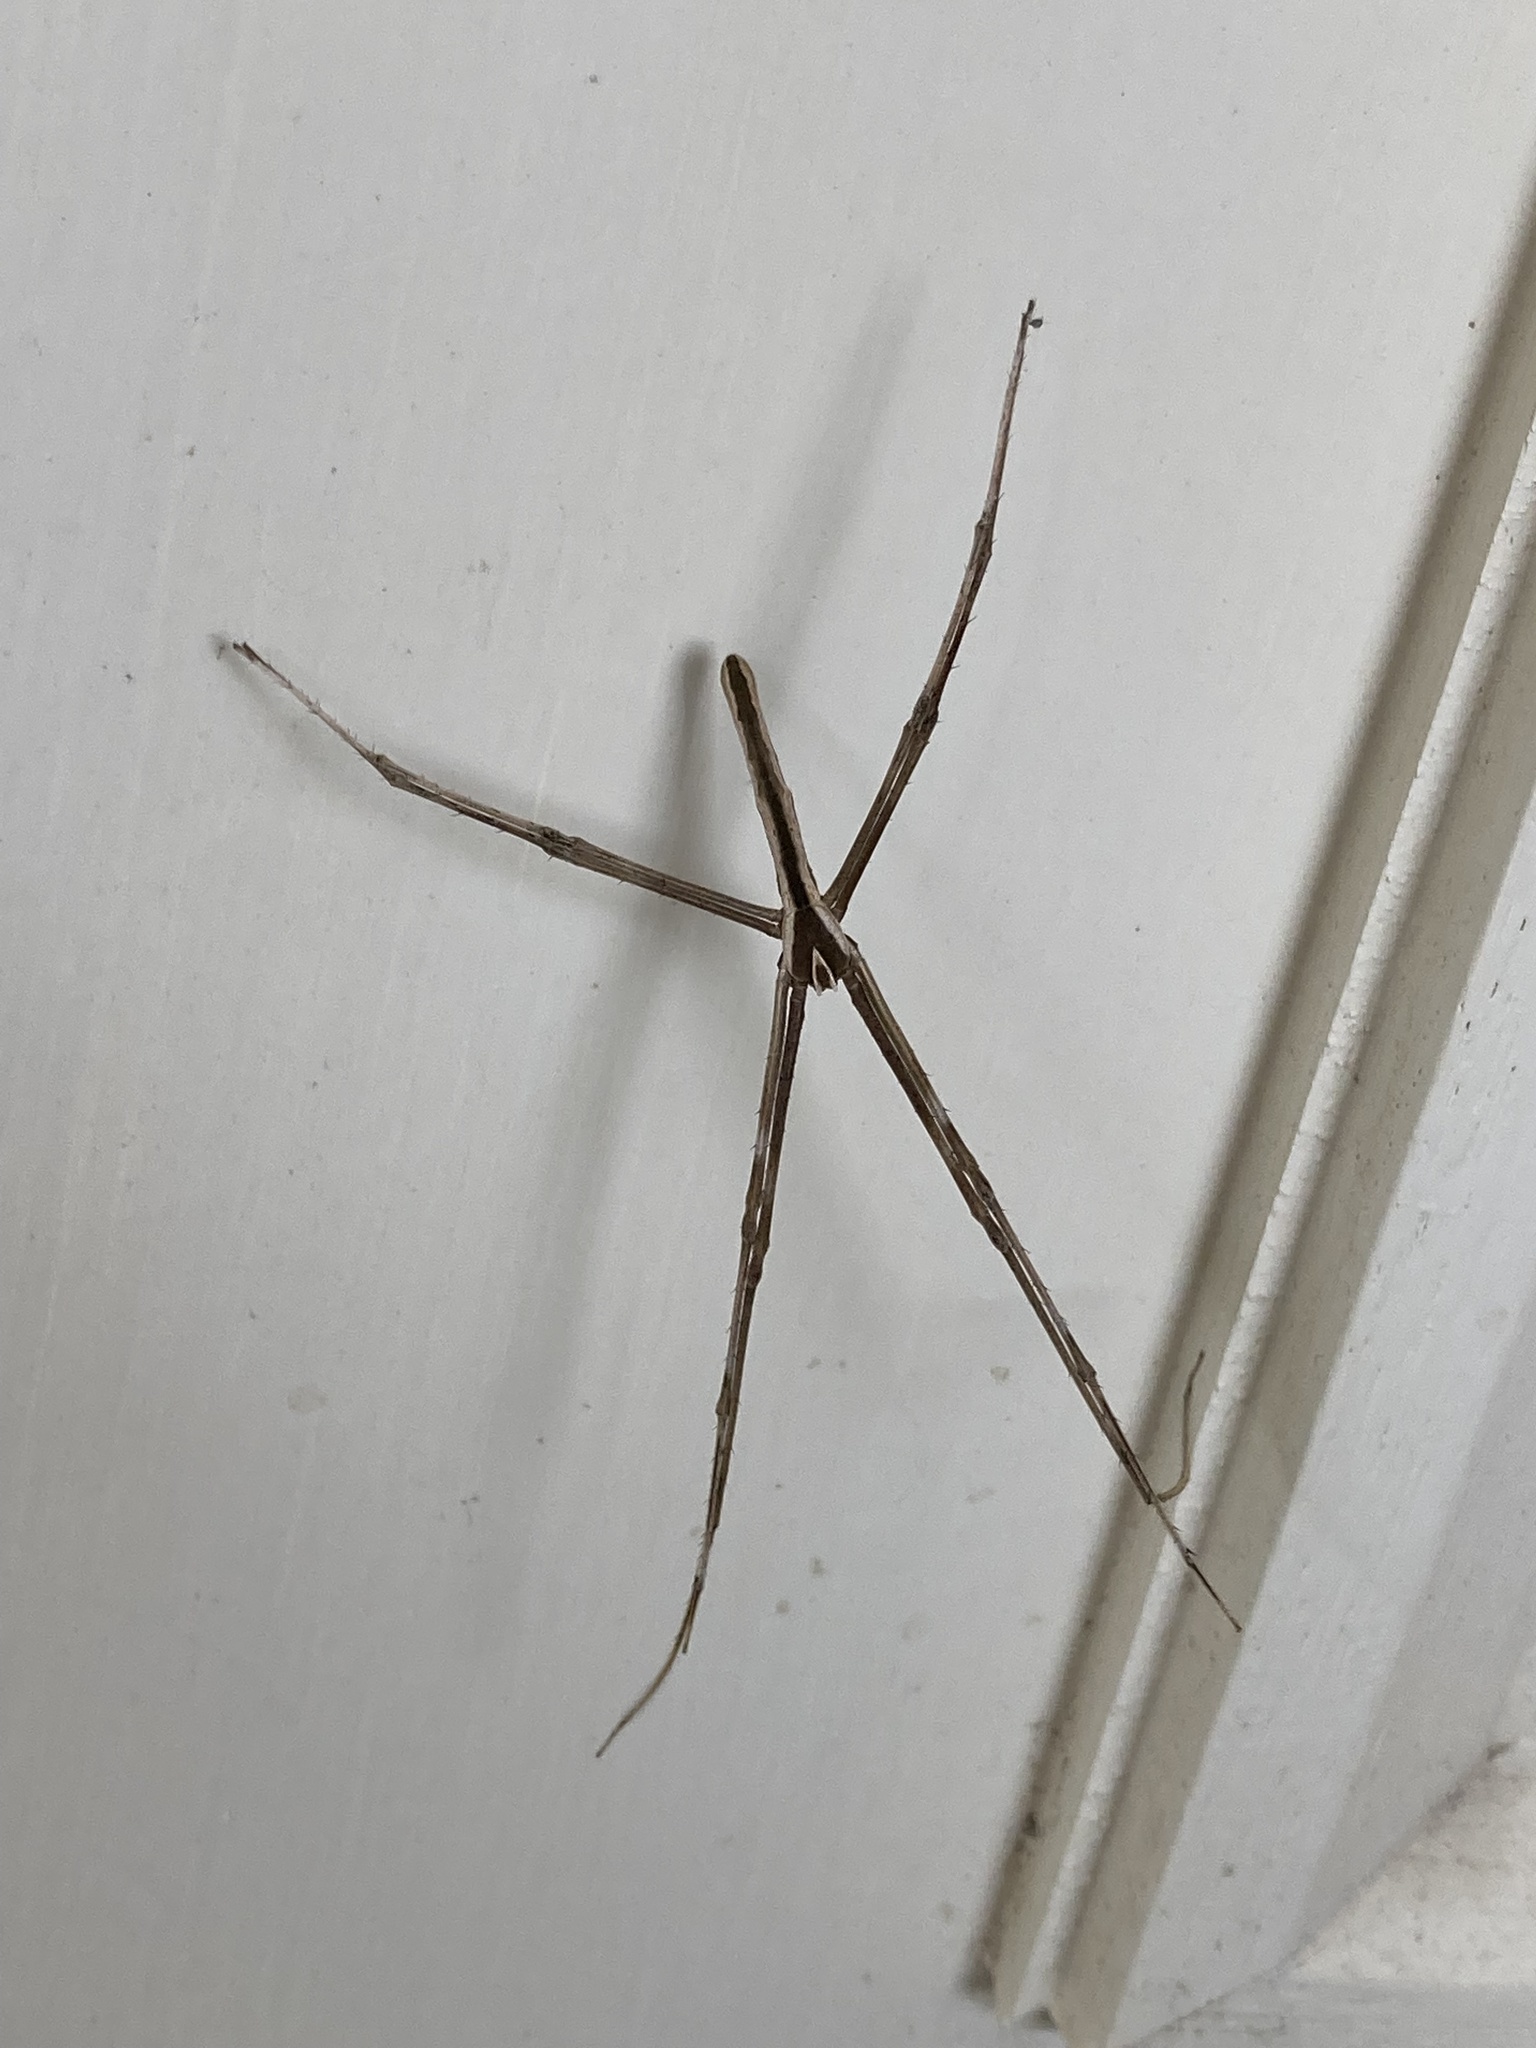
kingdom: Animalia
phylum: Arthropoda
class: Arachnida
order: Araneae
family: Deinopidae
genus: Deinopis
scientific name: Deinopis subrufa
